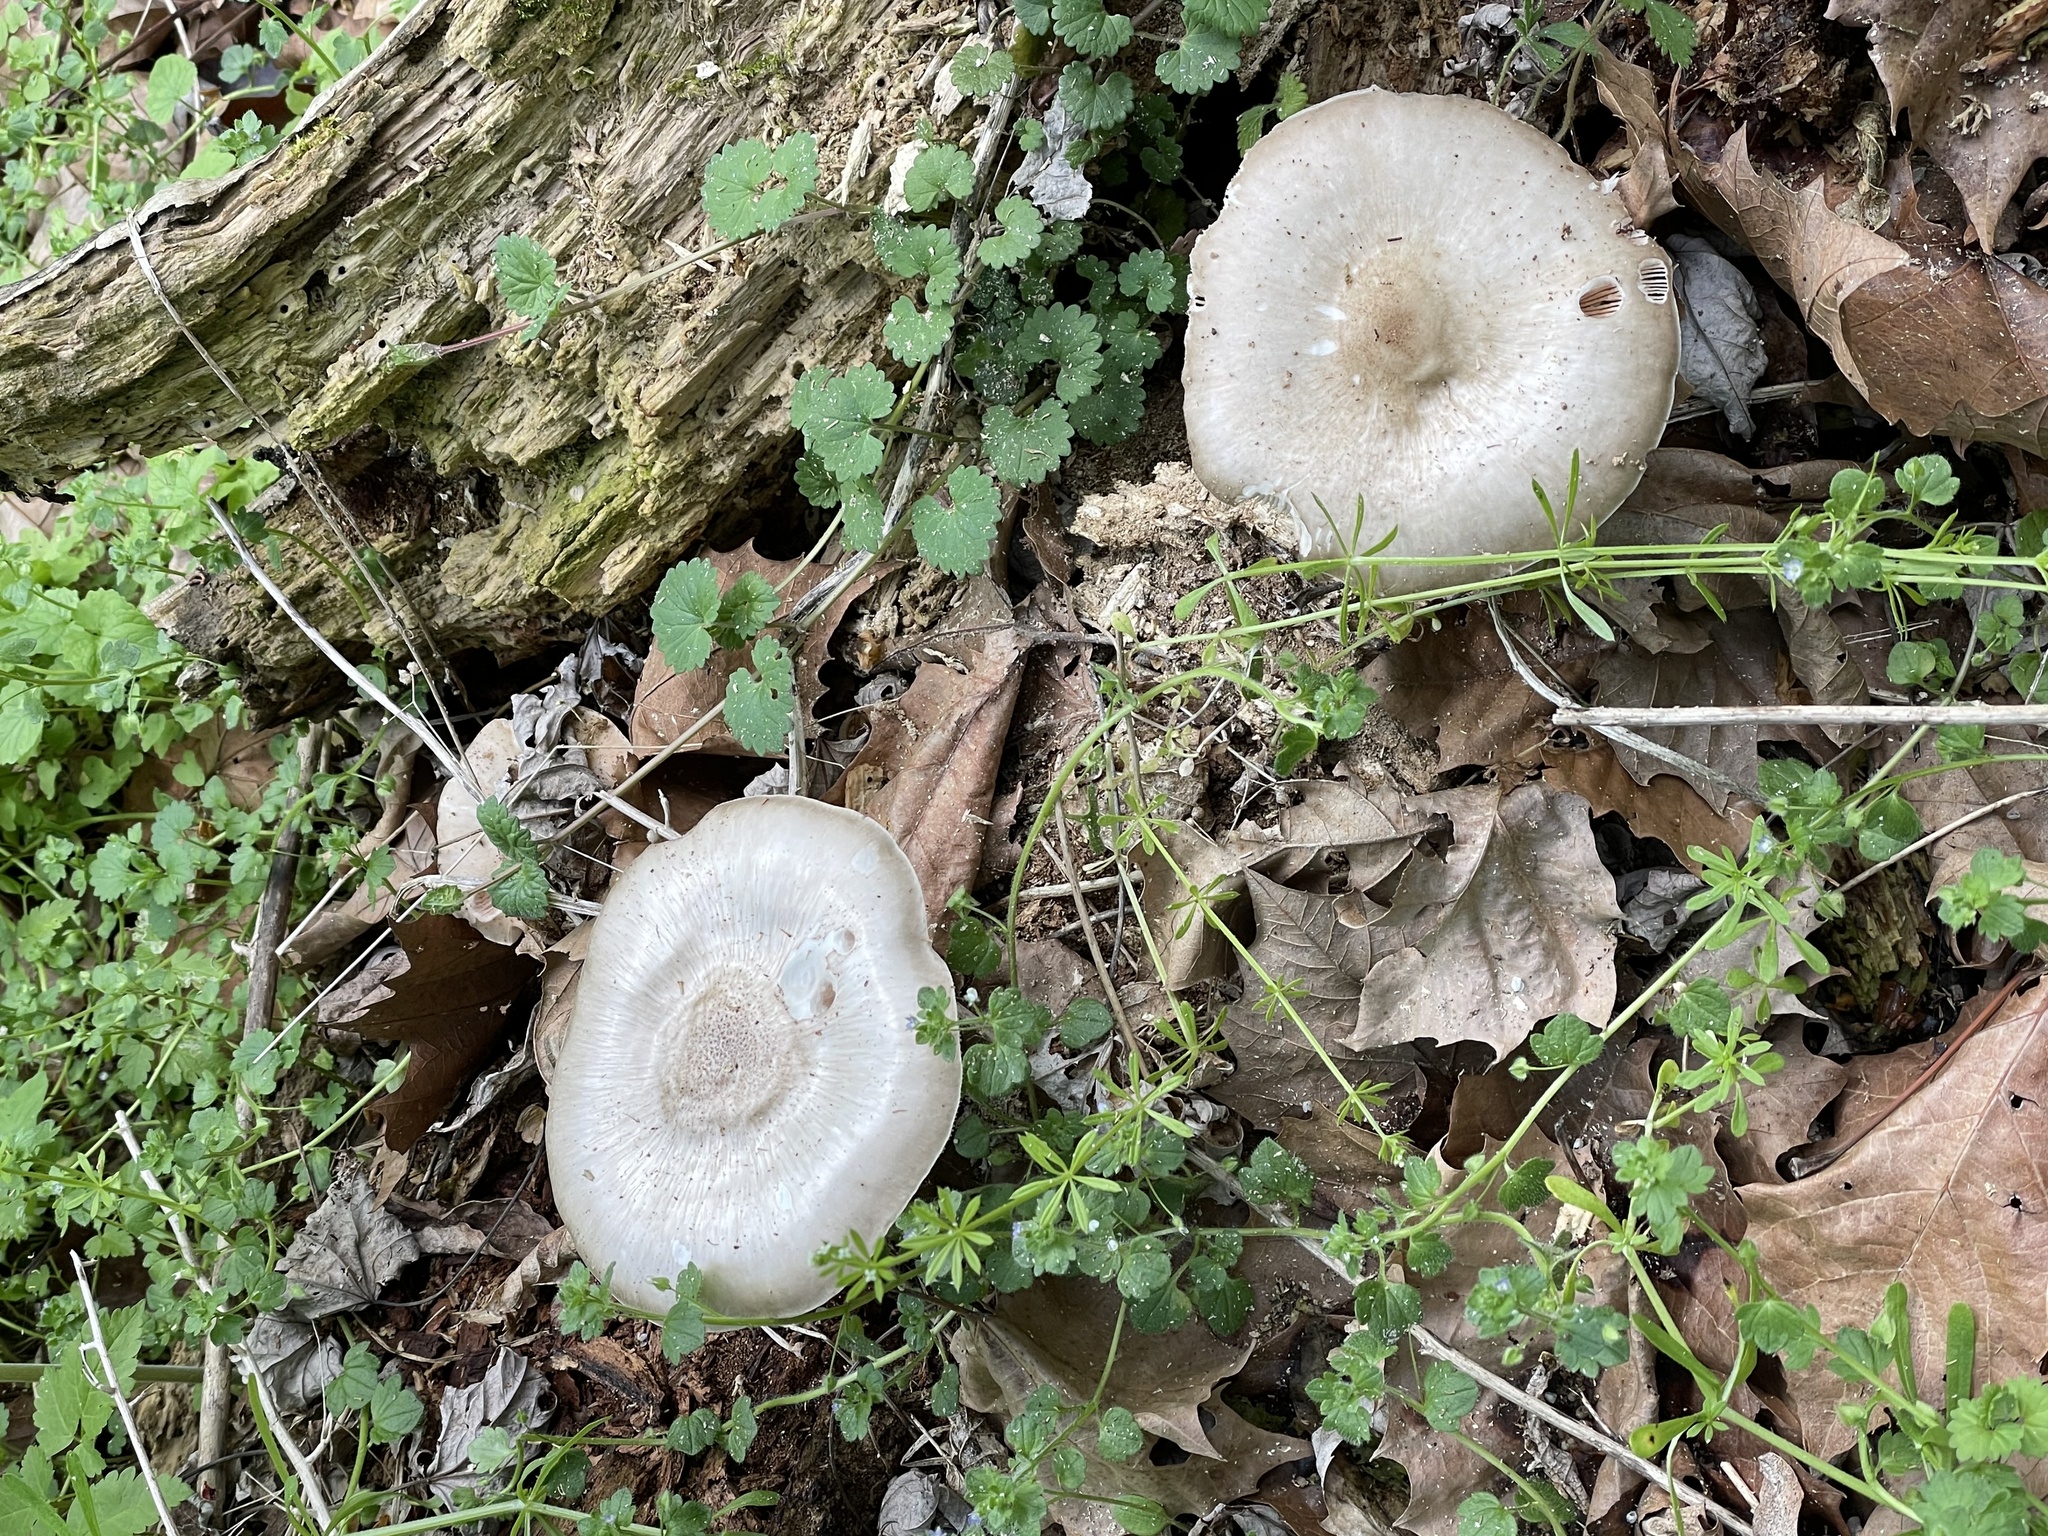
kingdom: Fungi
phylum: Basidiomycota
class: Agaricomycetes
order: Agaricales
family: Pluteaceae
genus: Pluteus
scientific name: Pluteus cervinus
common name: Deer shield
